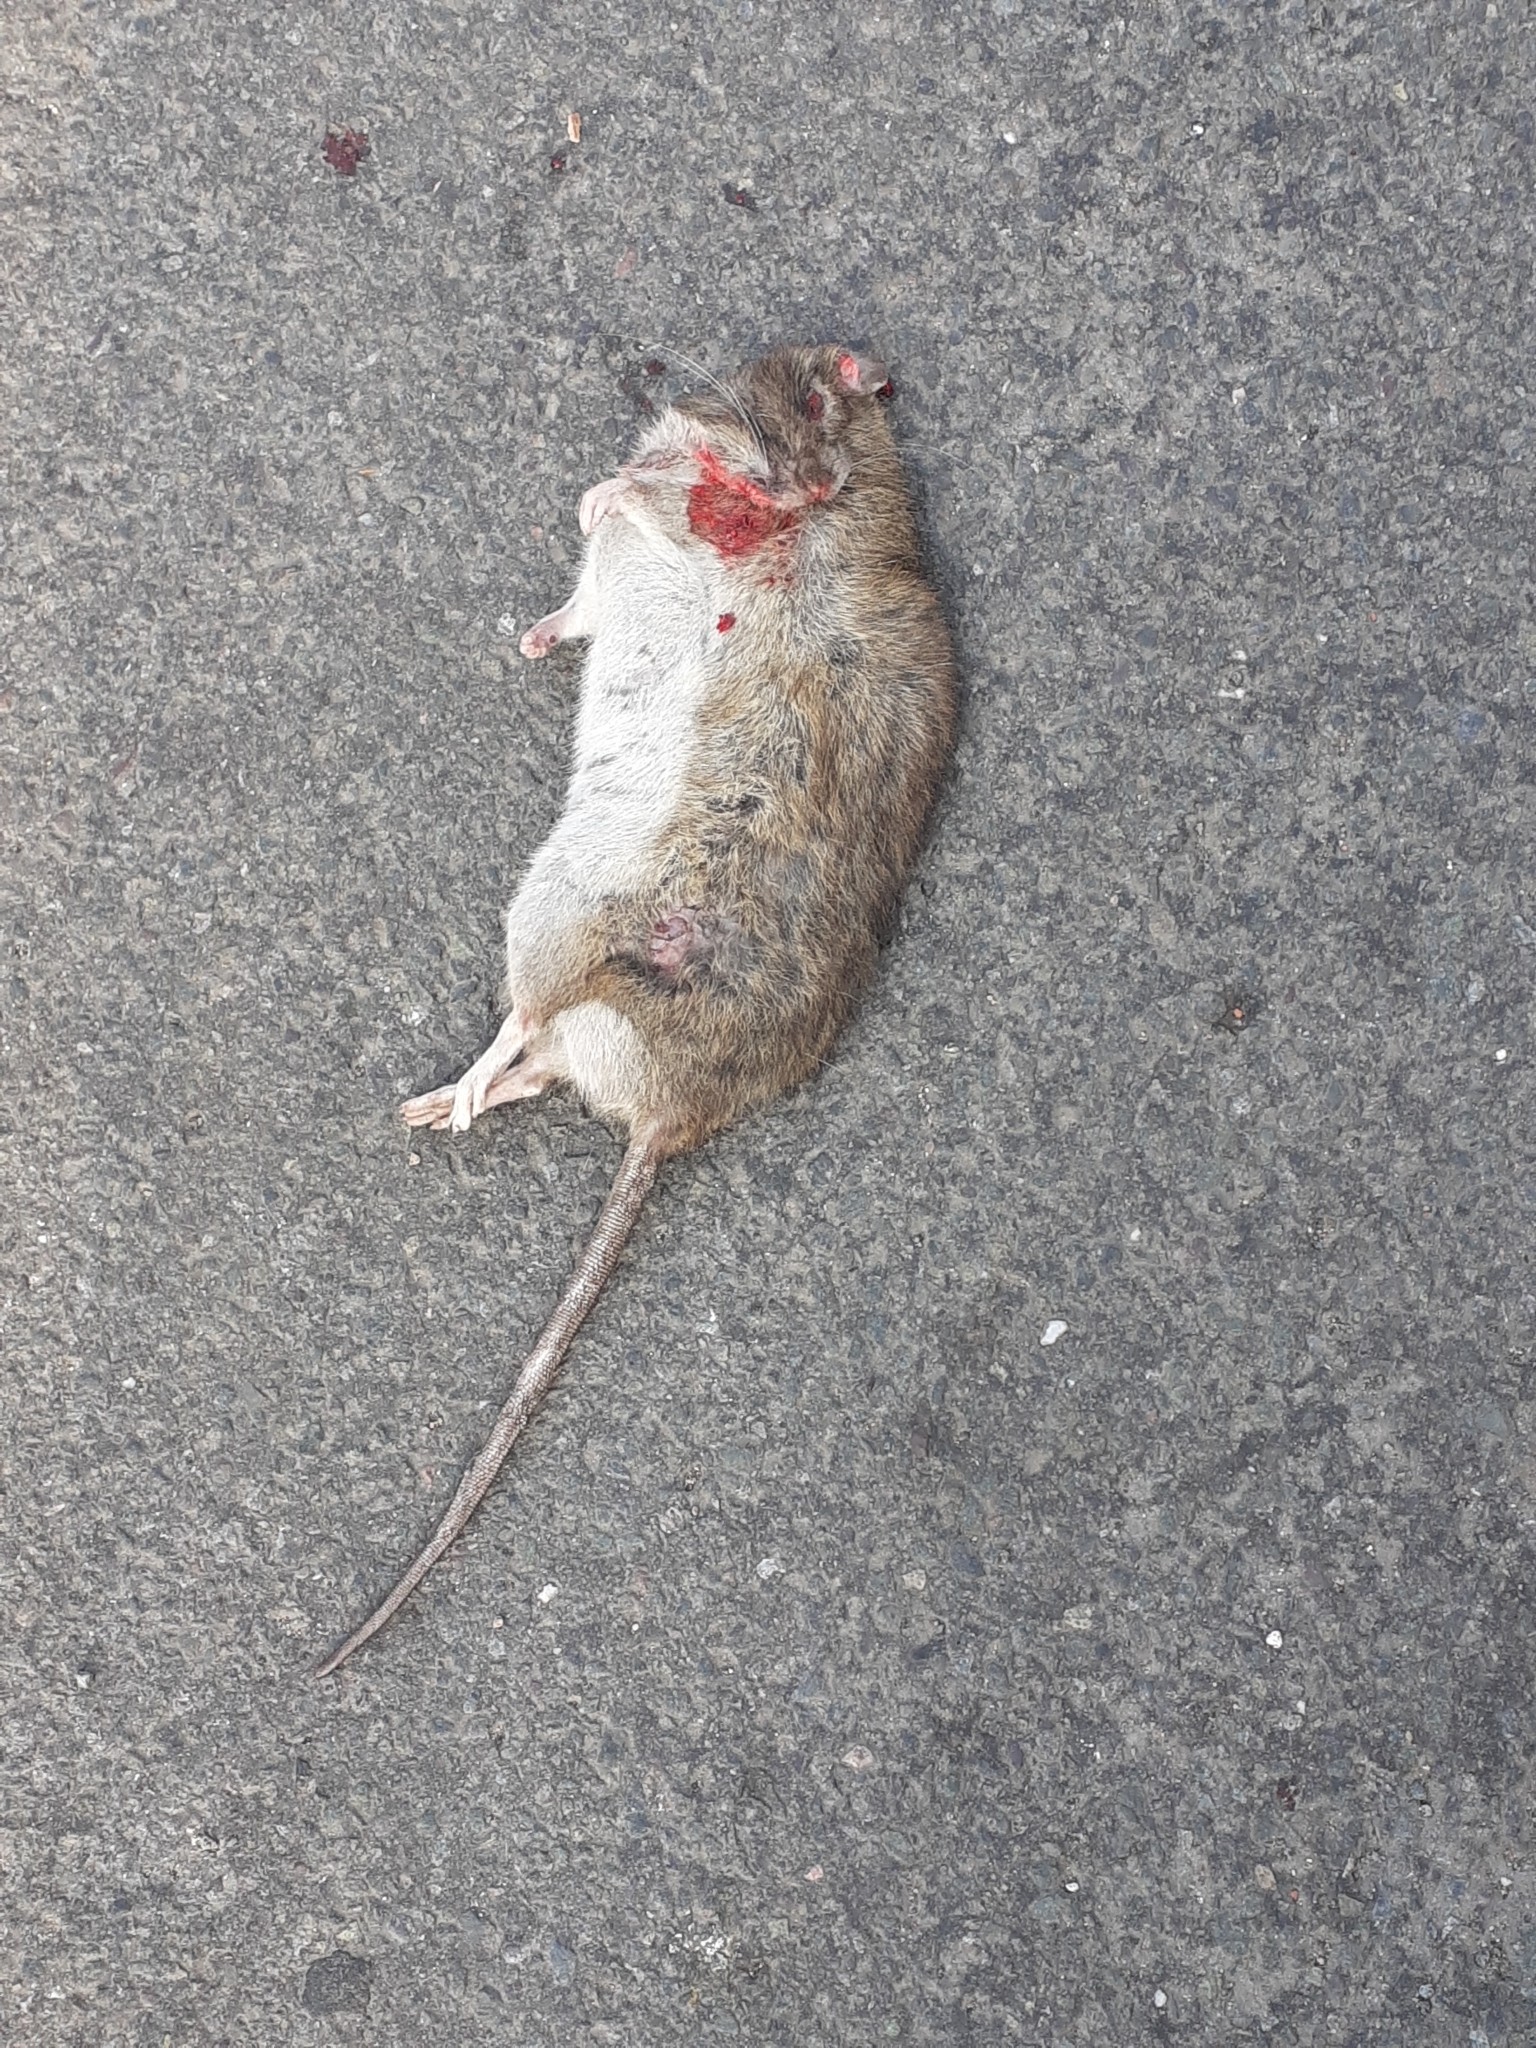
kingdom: Animalia
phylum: Chordata
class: Mammalia
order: Rodentia
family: Muridae
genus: Rattus
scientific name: Rattus norvegicus
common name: Brown rat
